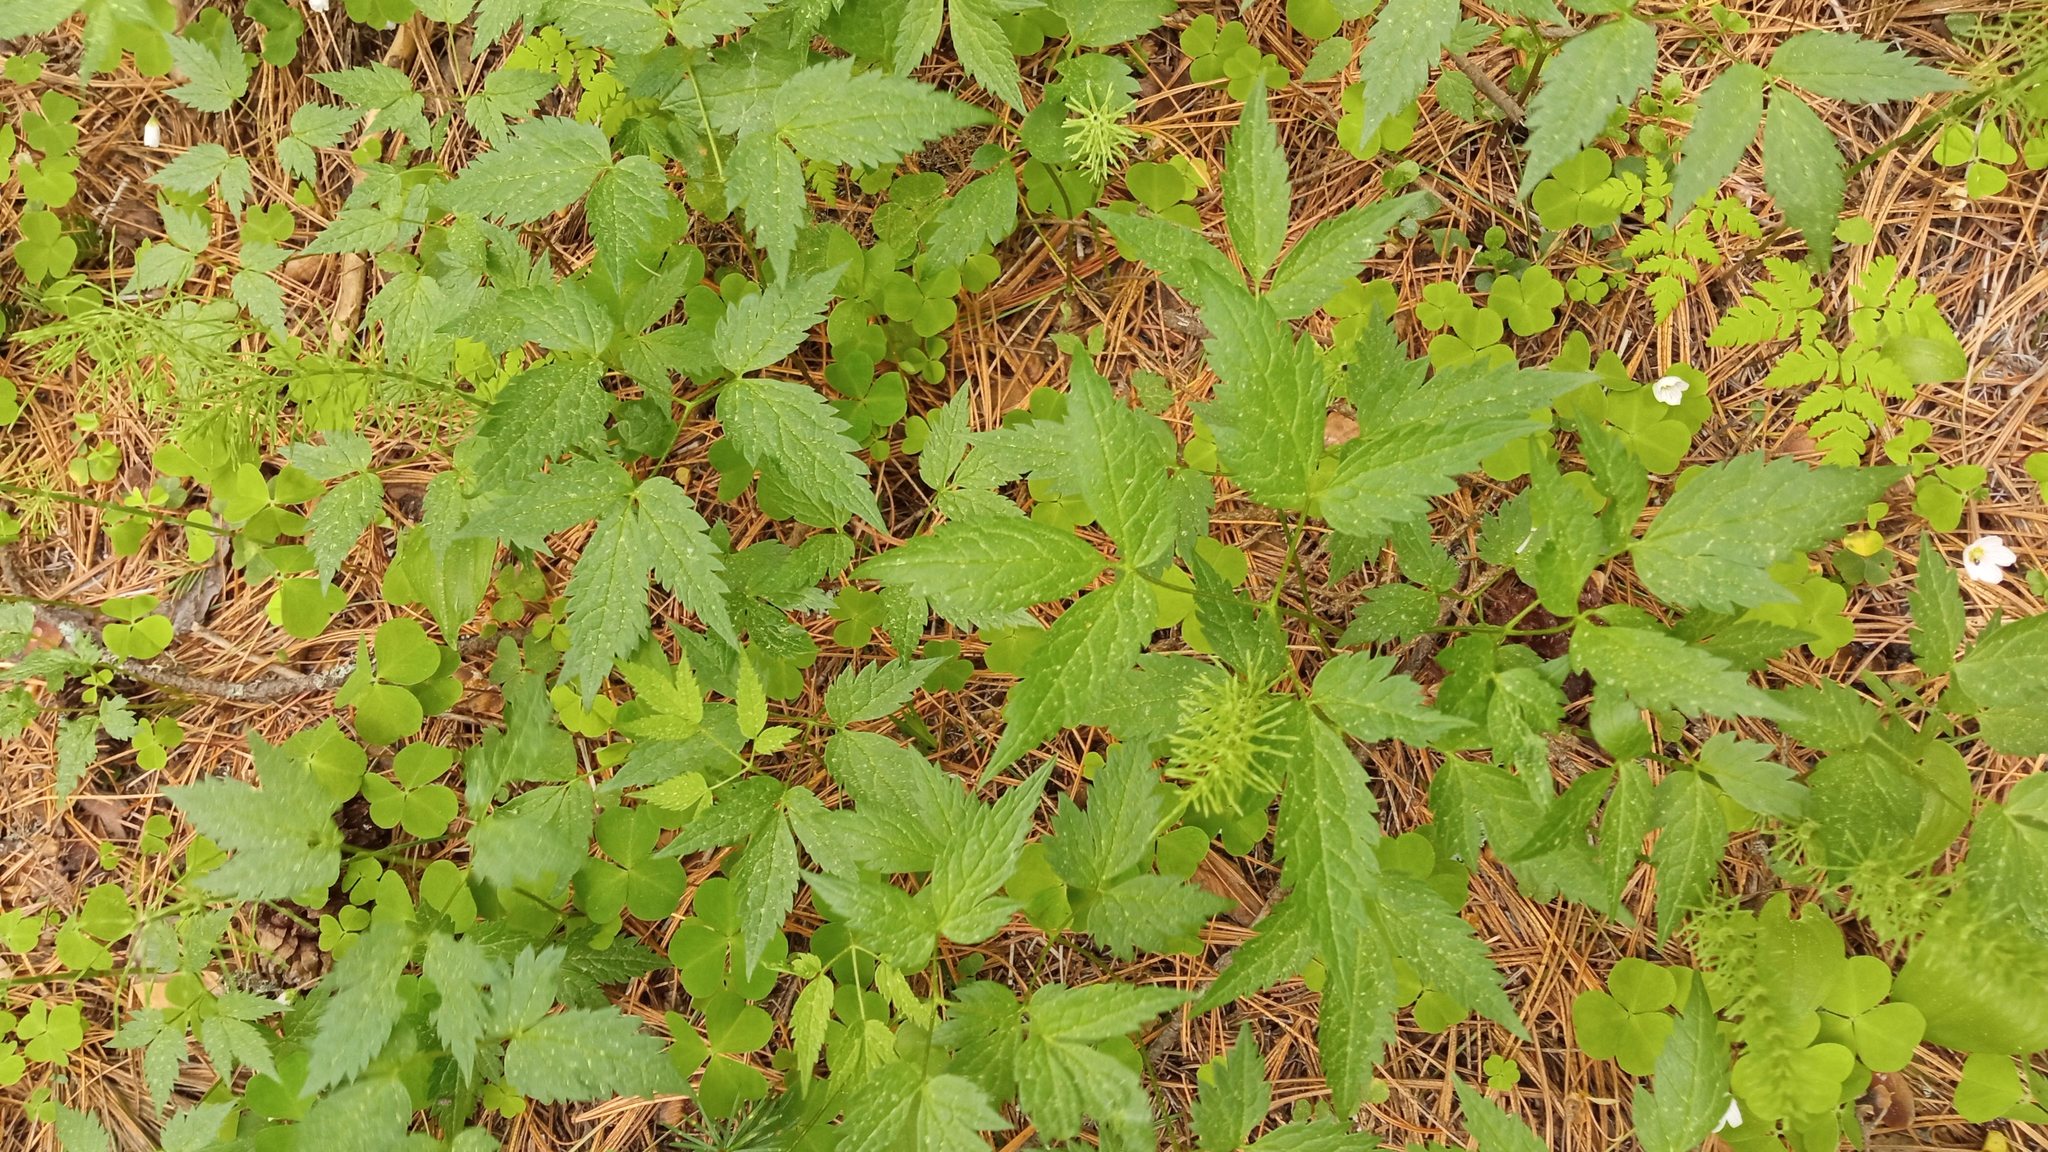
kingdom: Plantae
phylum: Tracheophyta
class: Magnoliopsida
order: Ranunculales
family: Ranunculaceae
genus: Clematis
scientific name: Clematis sibirica
